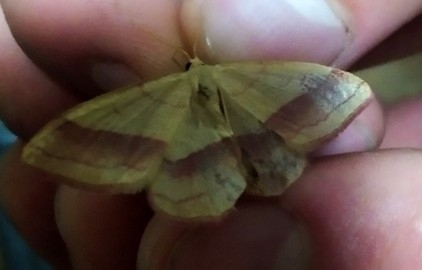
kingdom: Animalia
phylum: Arthropoda
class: Insecta
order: Lepidoptera
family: Geometridae
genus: Rhodostrophia
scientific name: Rhodostrophia vibicaria
